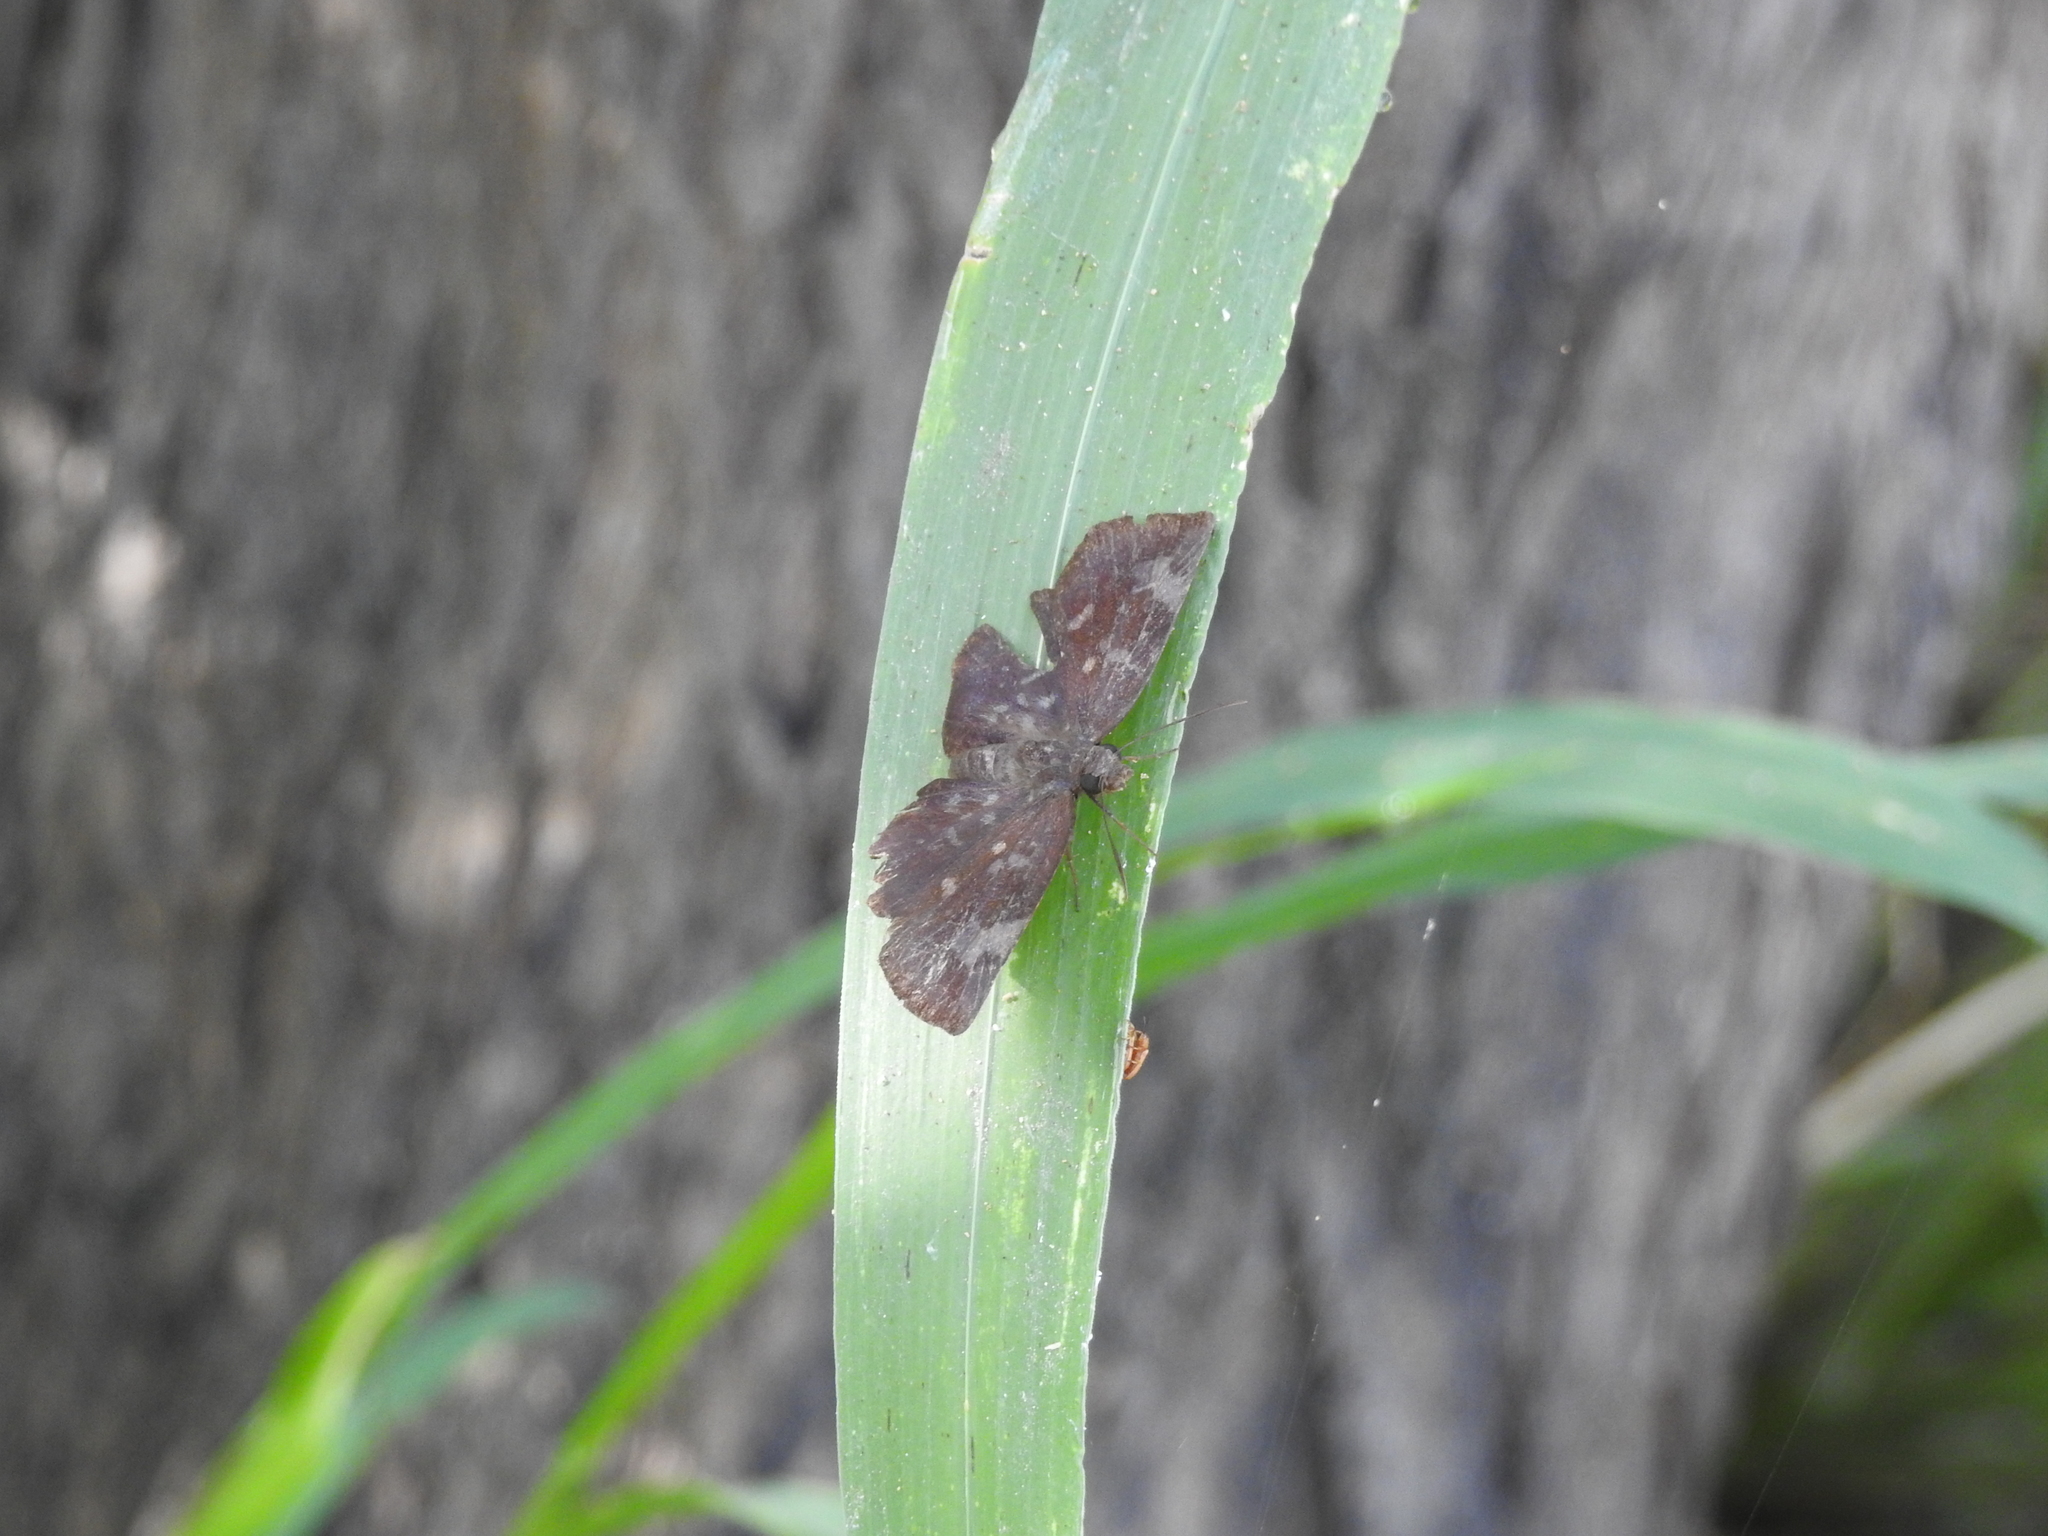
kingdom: Animalia
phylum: Arthropoda
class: Insecta
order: Lepidoptera
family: Hesperiidae
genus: Achlyodes
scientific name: Achlyodes thraso
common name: Sickle-winged skipper
